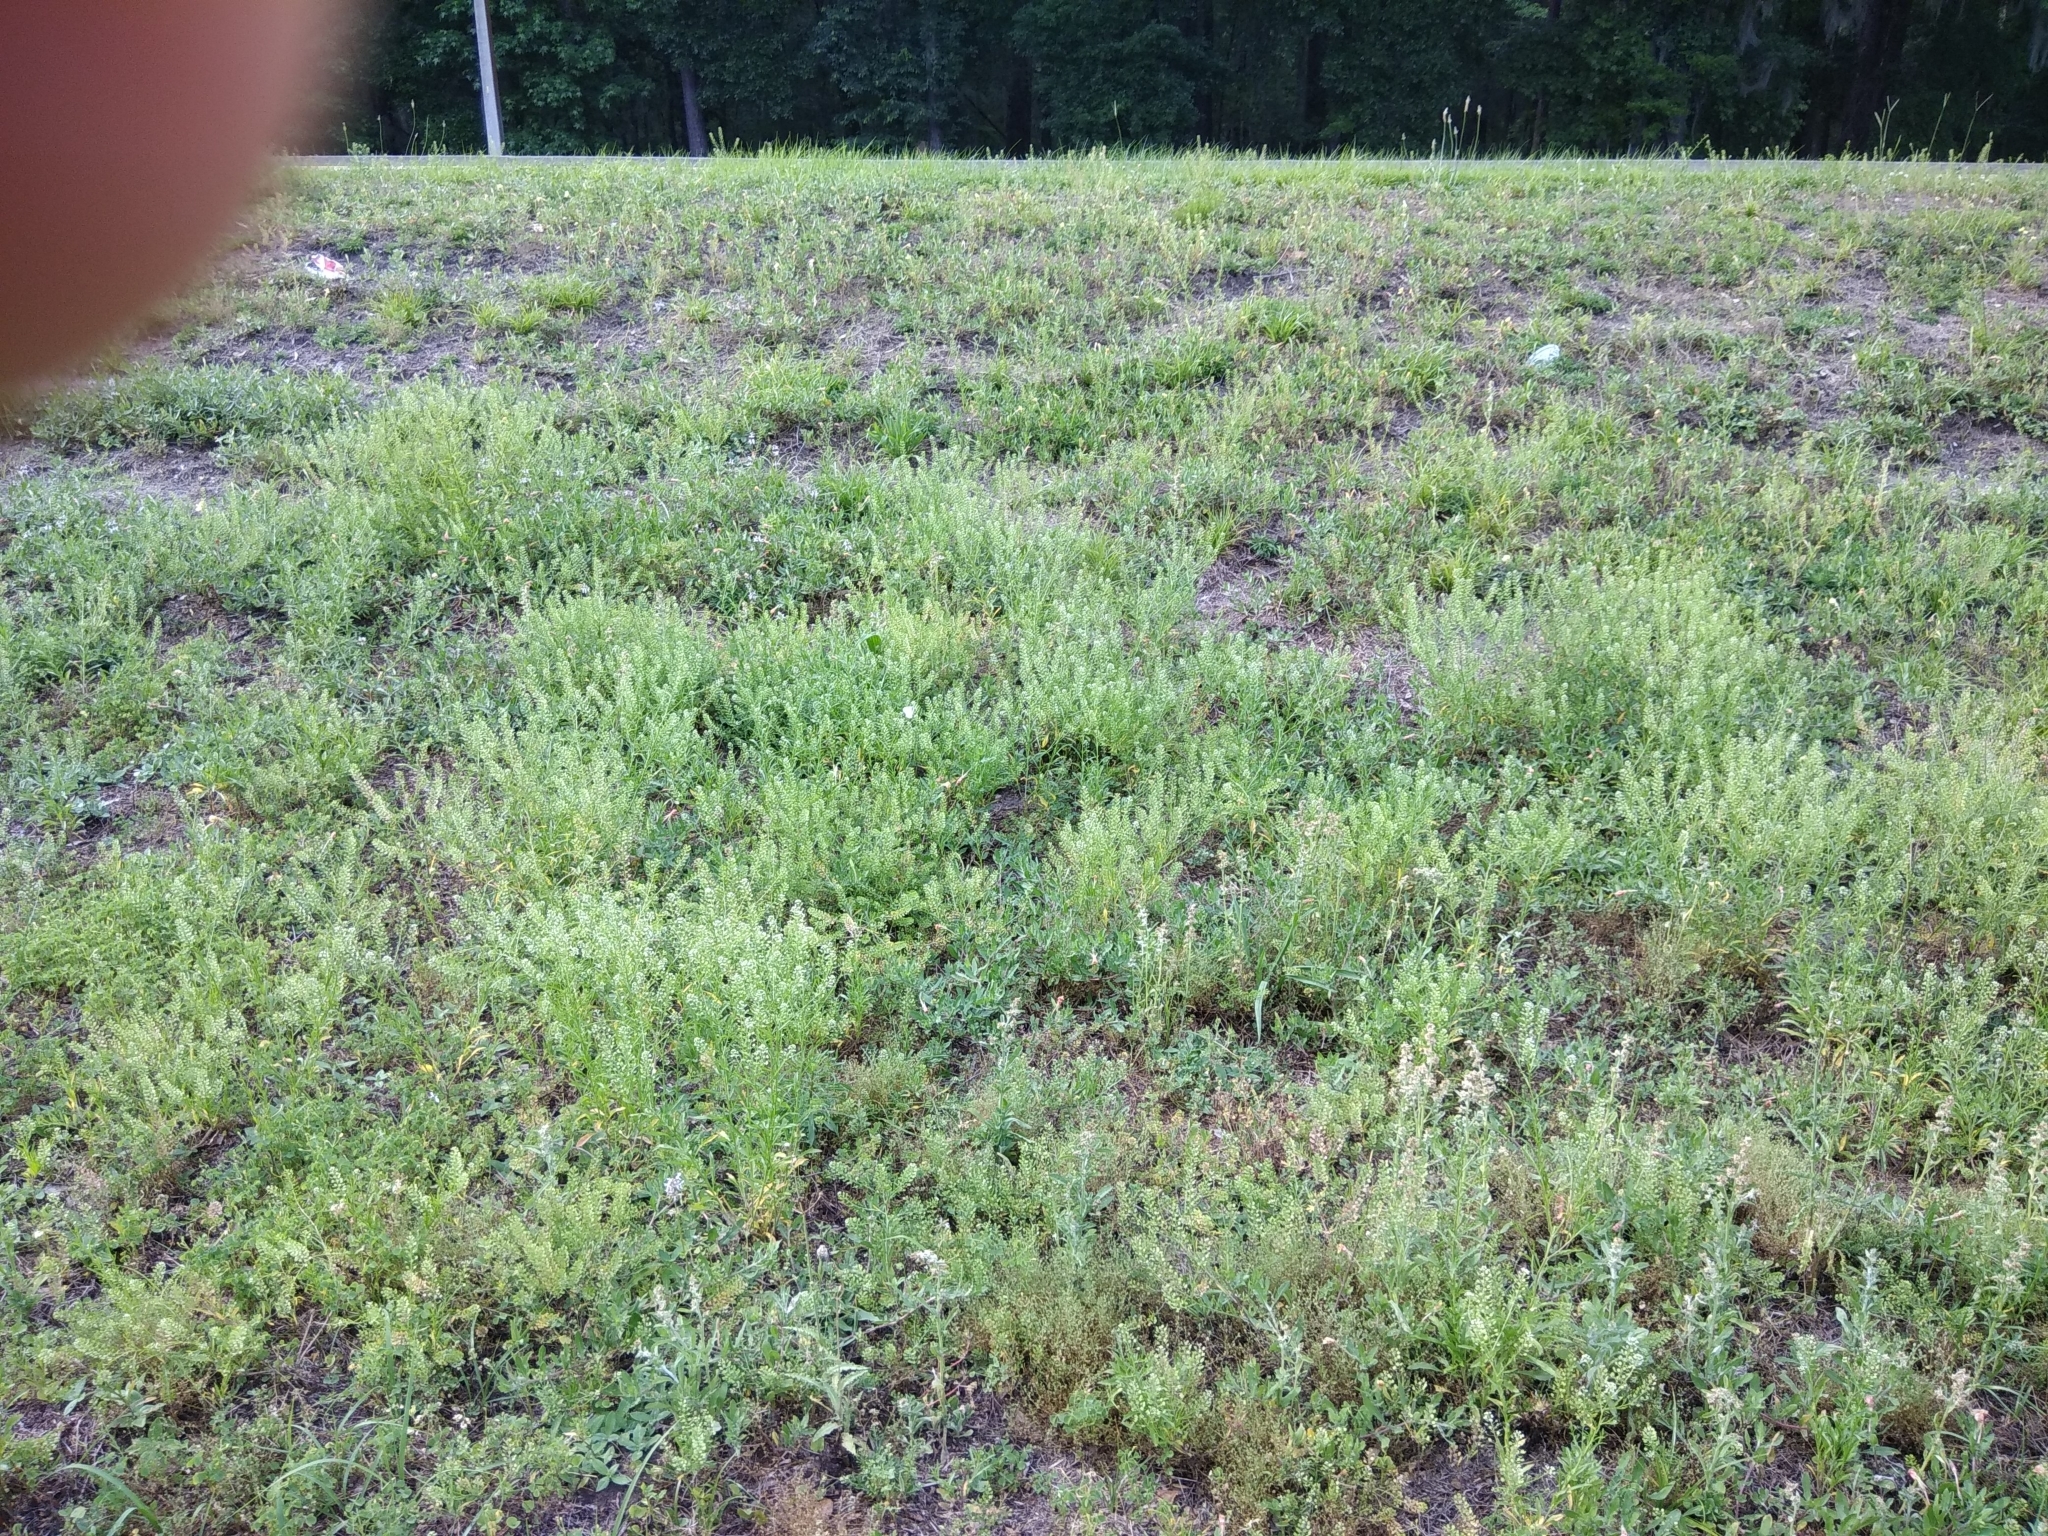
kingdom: Animalia
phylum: Arthropoda
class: Insecta
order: Lepidoptera
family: Pieridae
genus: Pontia
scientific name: Pontia protodice
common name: Checkered white
